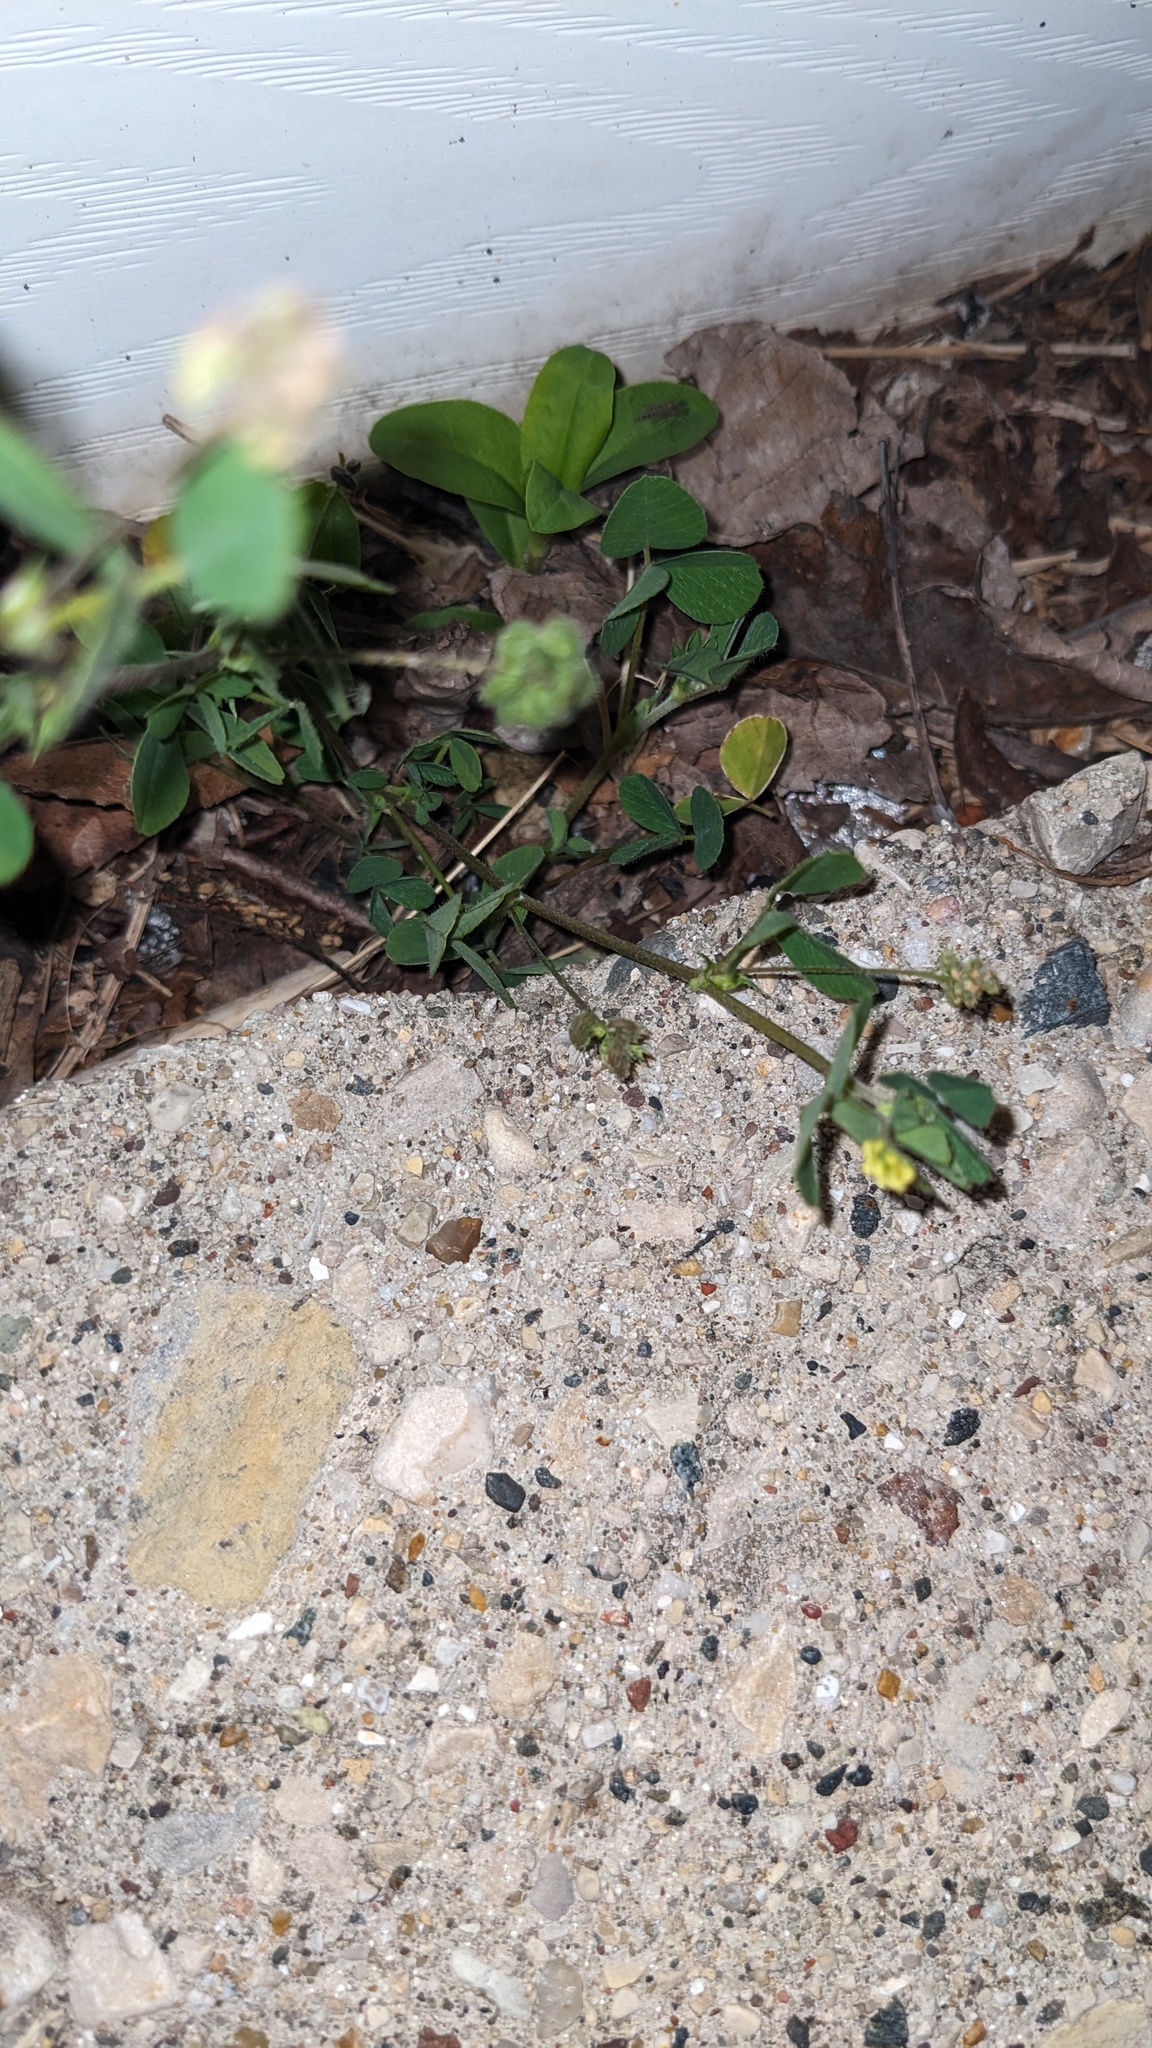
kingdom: Plantae
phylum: Tracheophyta
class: Magnoliopsida
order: Fabales
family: Fabaceae
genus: Medicago
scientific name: Medicago lupulina
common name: Black medick
